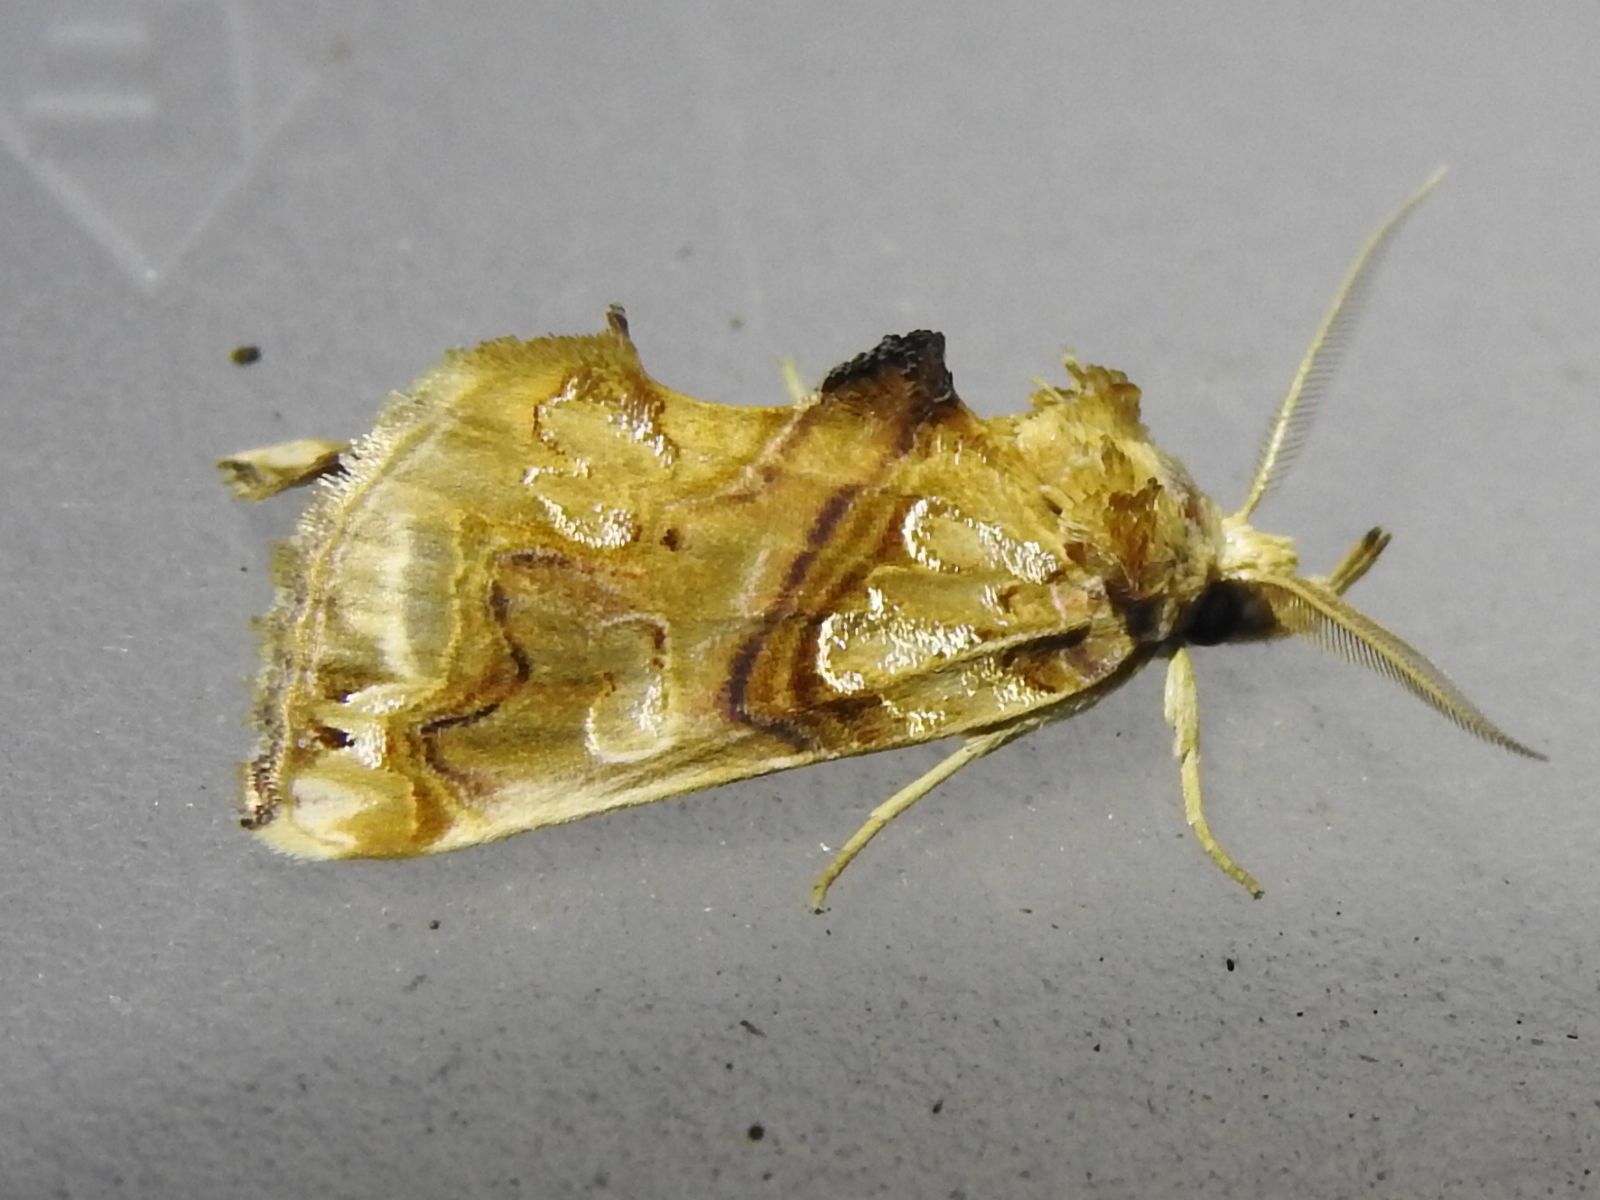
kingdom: Animalia
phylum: Arthropoda
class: Insecta
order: Lepidoptera
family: Erebidae
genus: Plusiodonta
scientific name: Plusiodonta compressipalpis
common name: Moonseed moth
